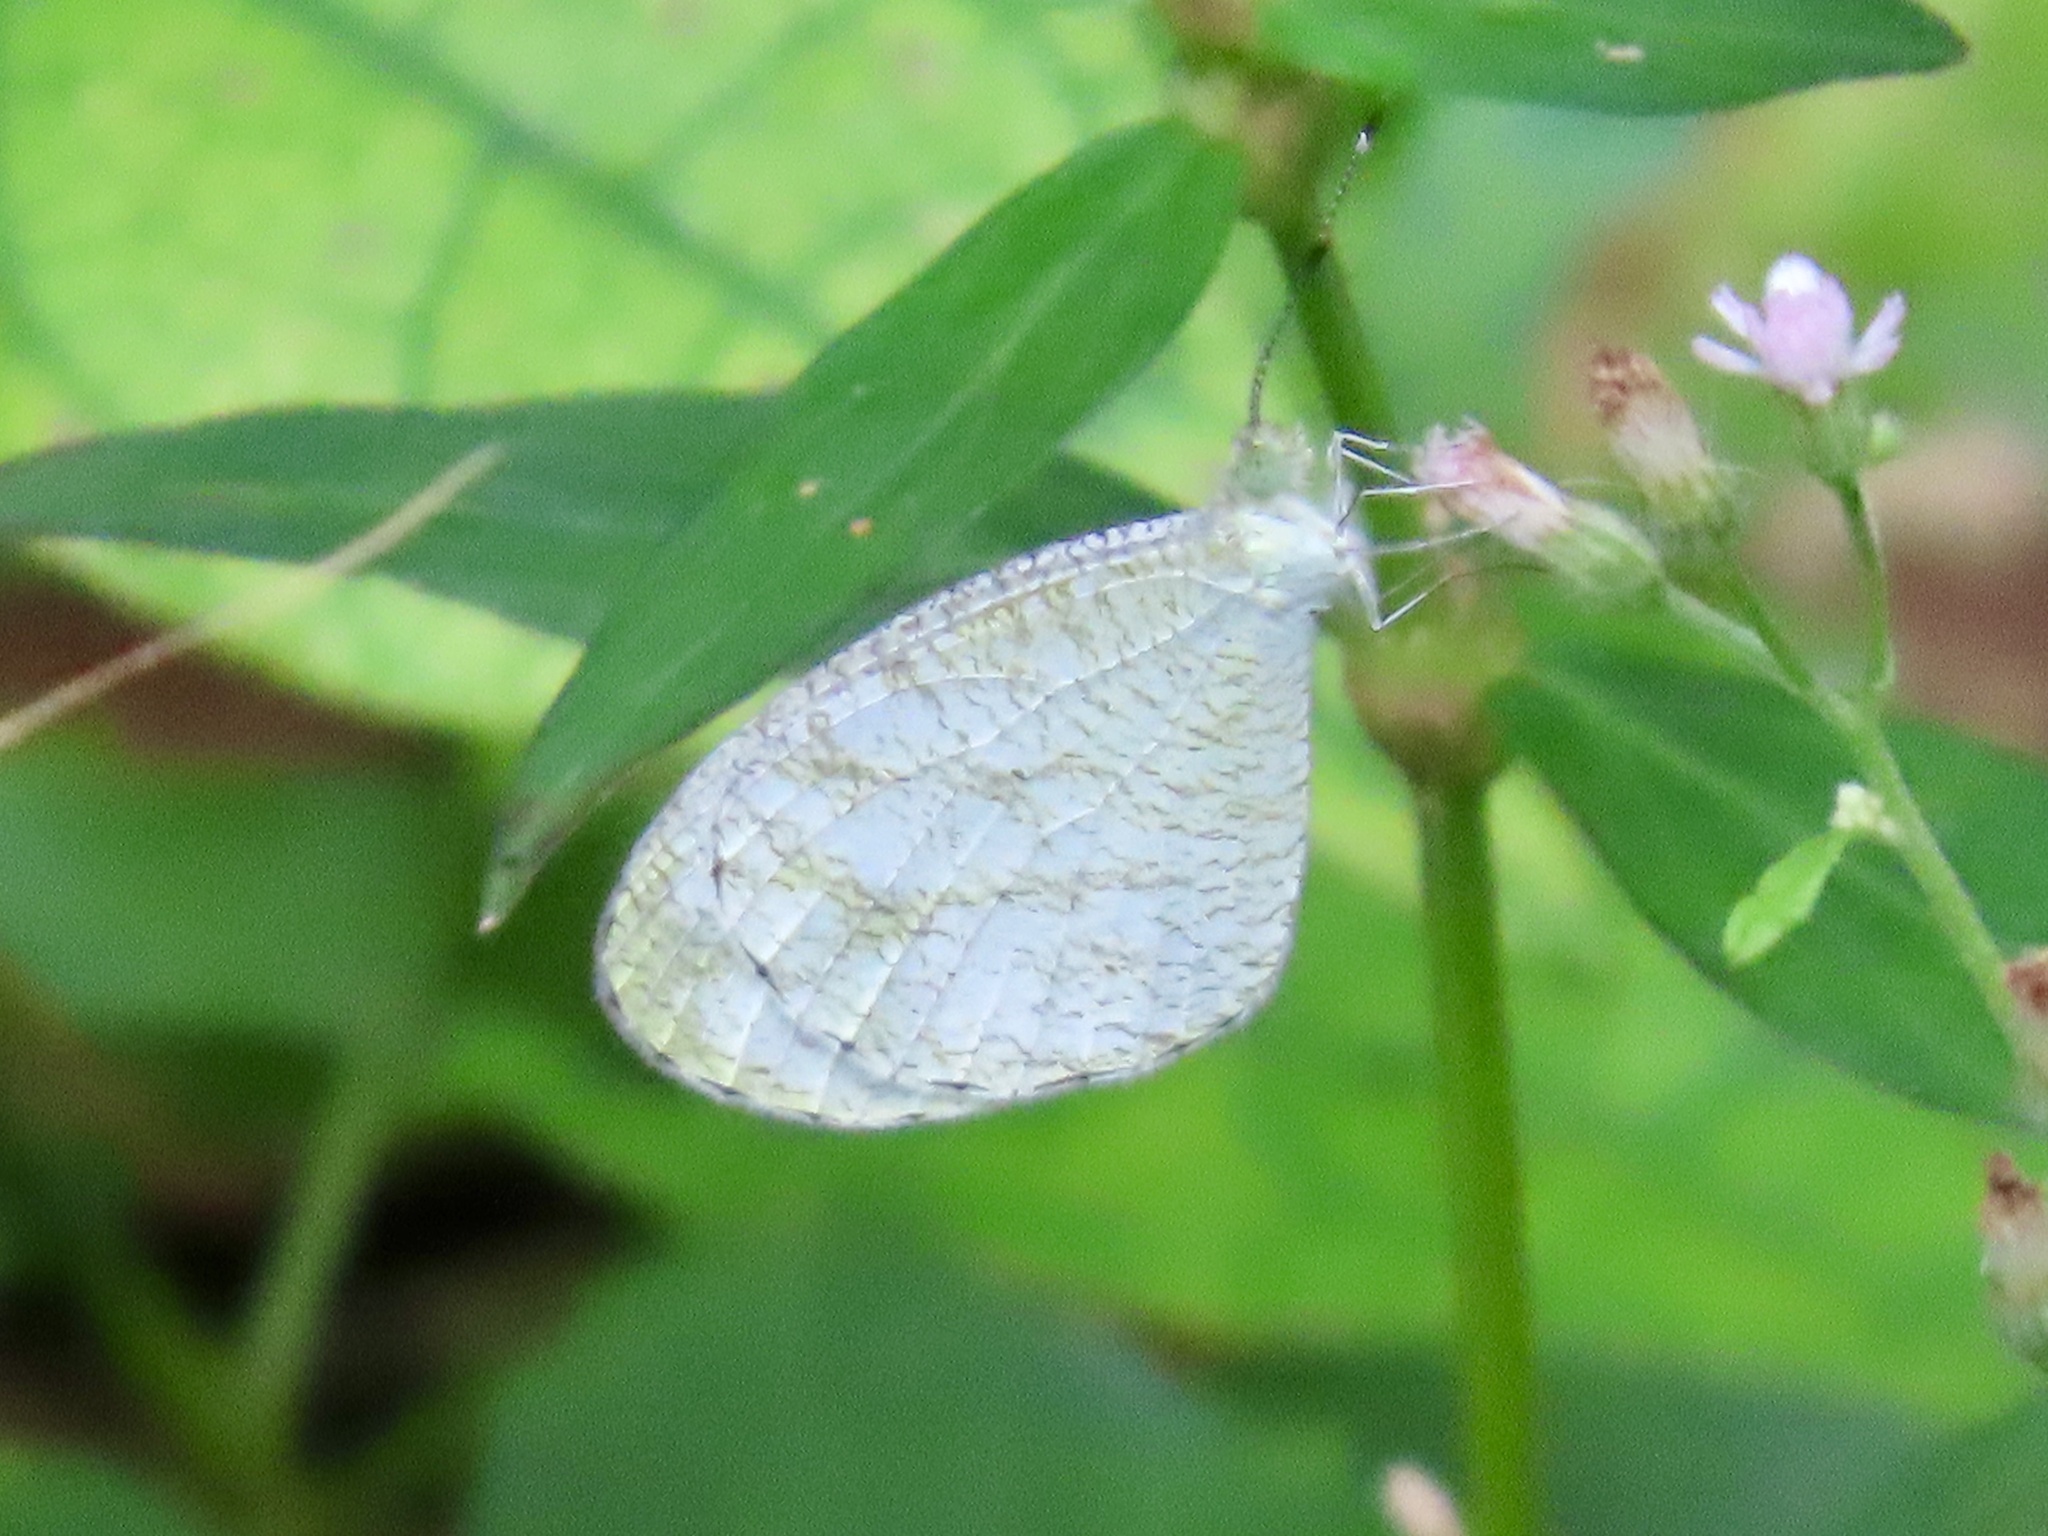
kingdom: Animalia
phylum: Arthropoda
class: Insecta
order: Lepidoptera
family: Pieridae
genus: Leptosia
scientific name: Leptosia nina
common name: Psyche
